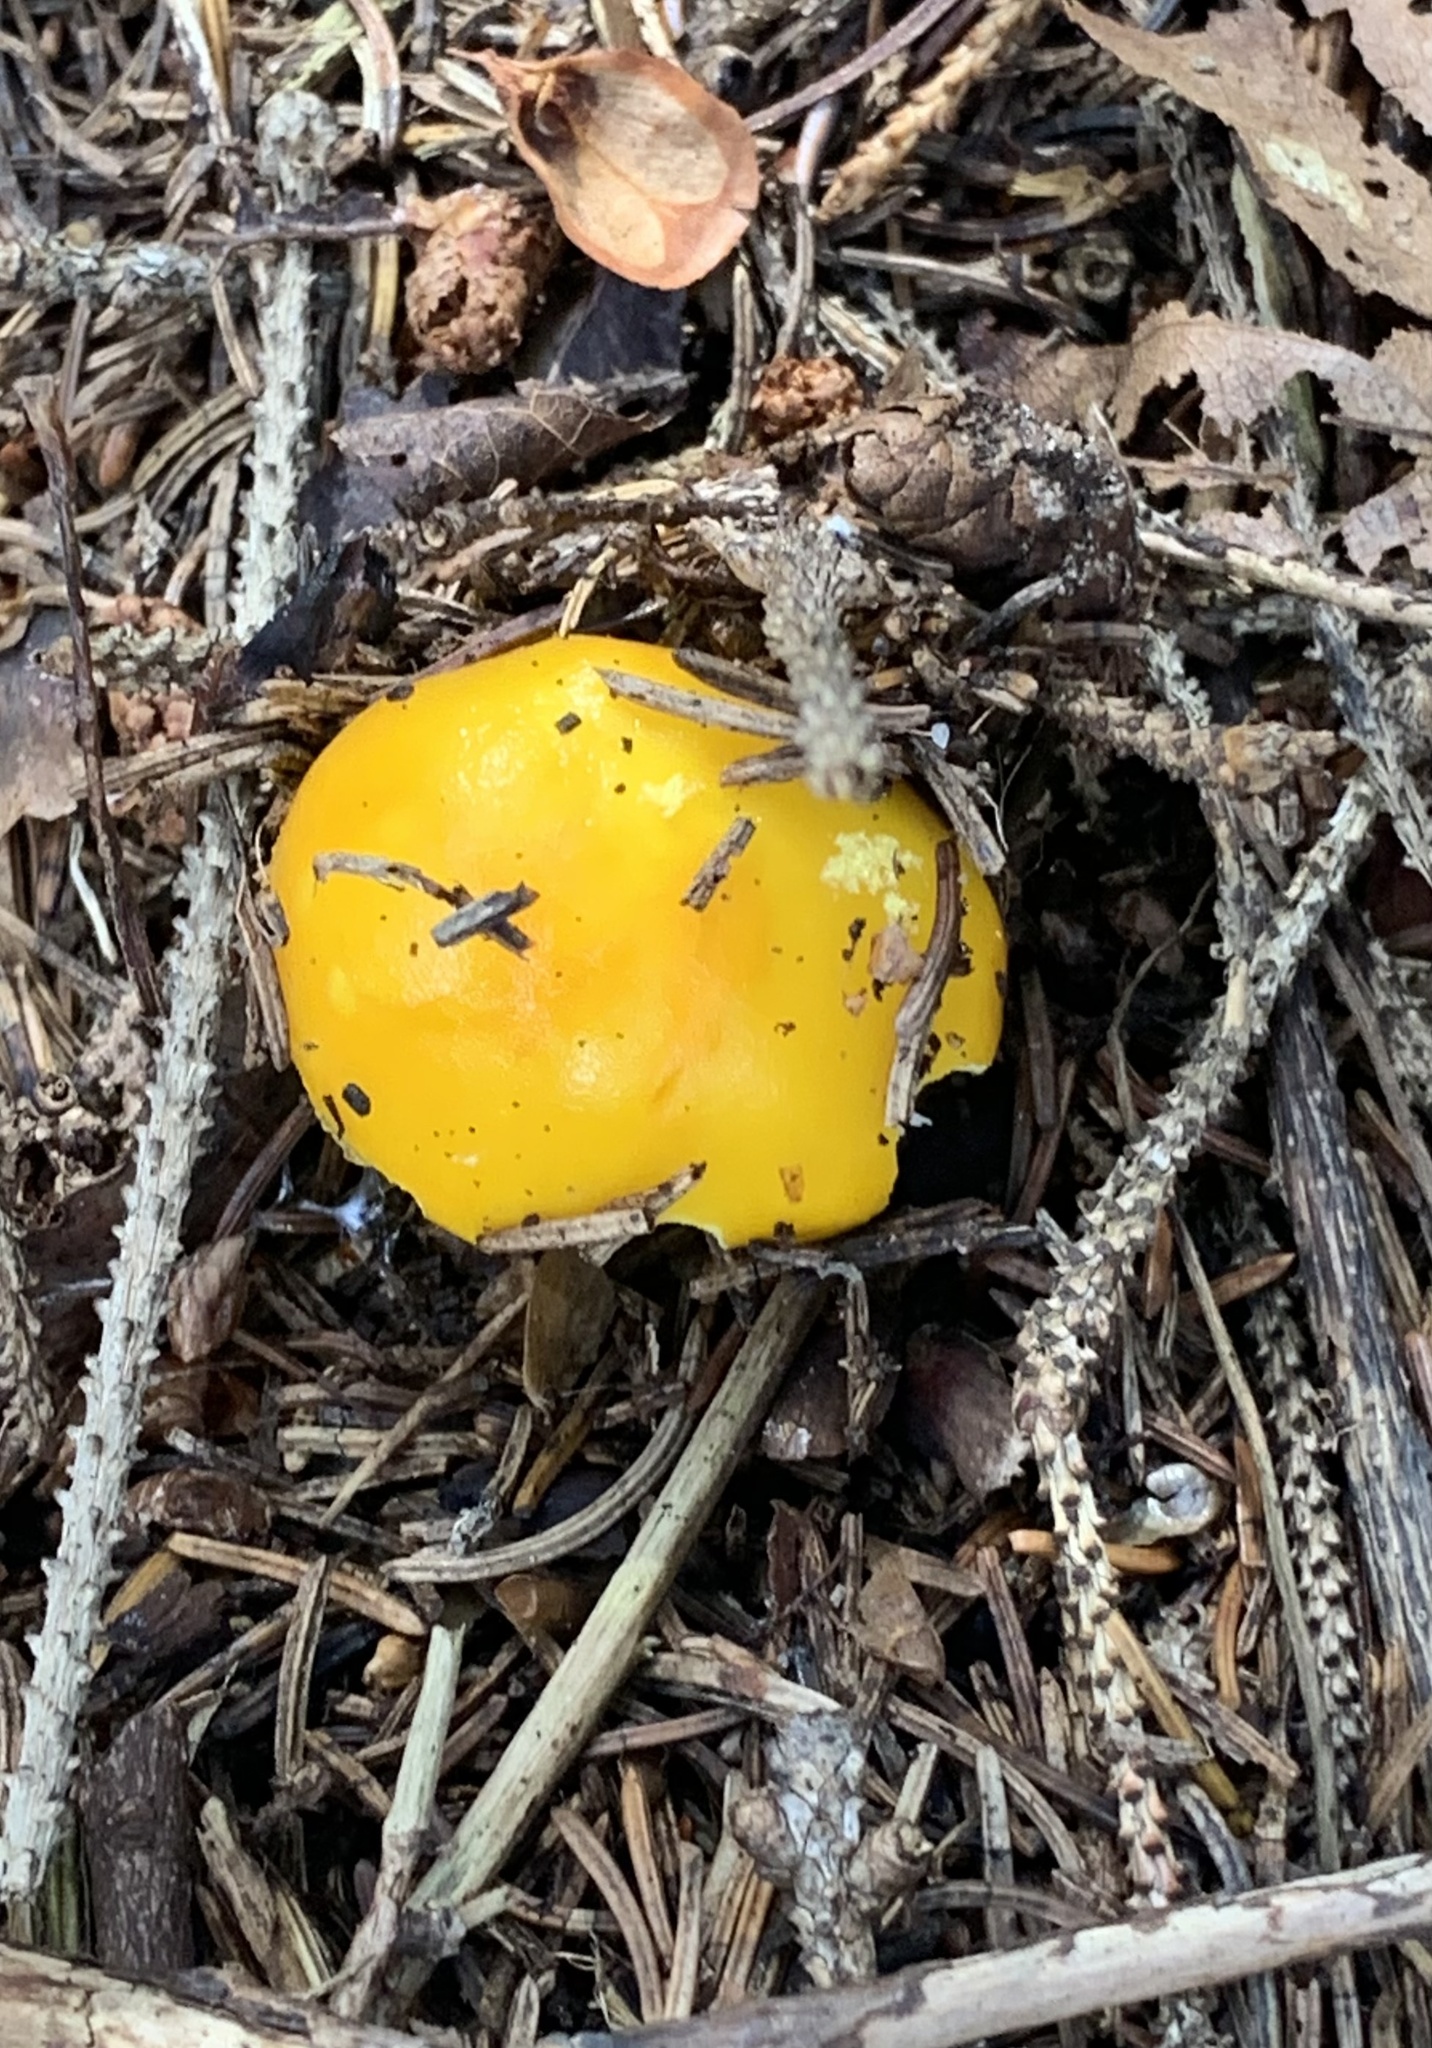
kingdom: Fungi
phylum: Basidiomycota
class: Agaricomycetes
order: Agaricales
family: Amanitaceae
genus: Amanita
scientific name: Amanita flavoconia
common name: Yellow patches
